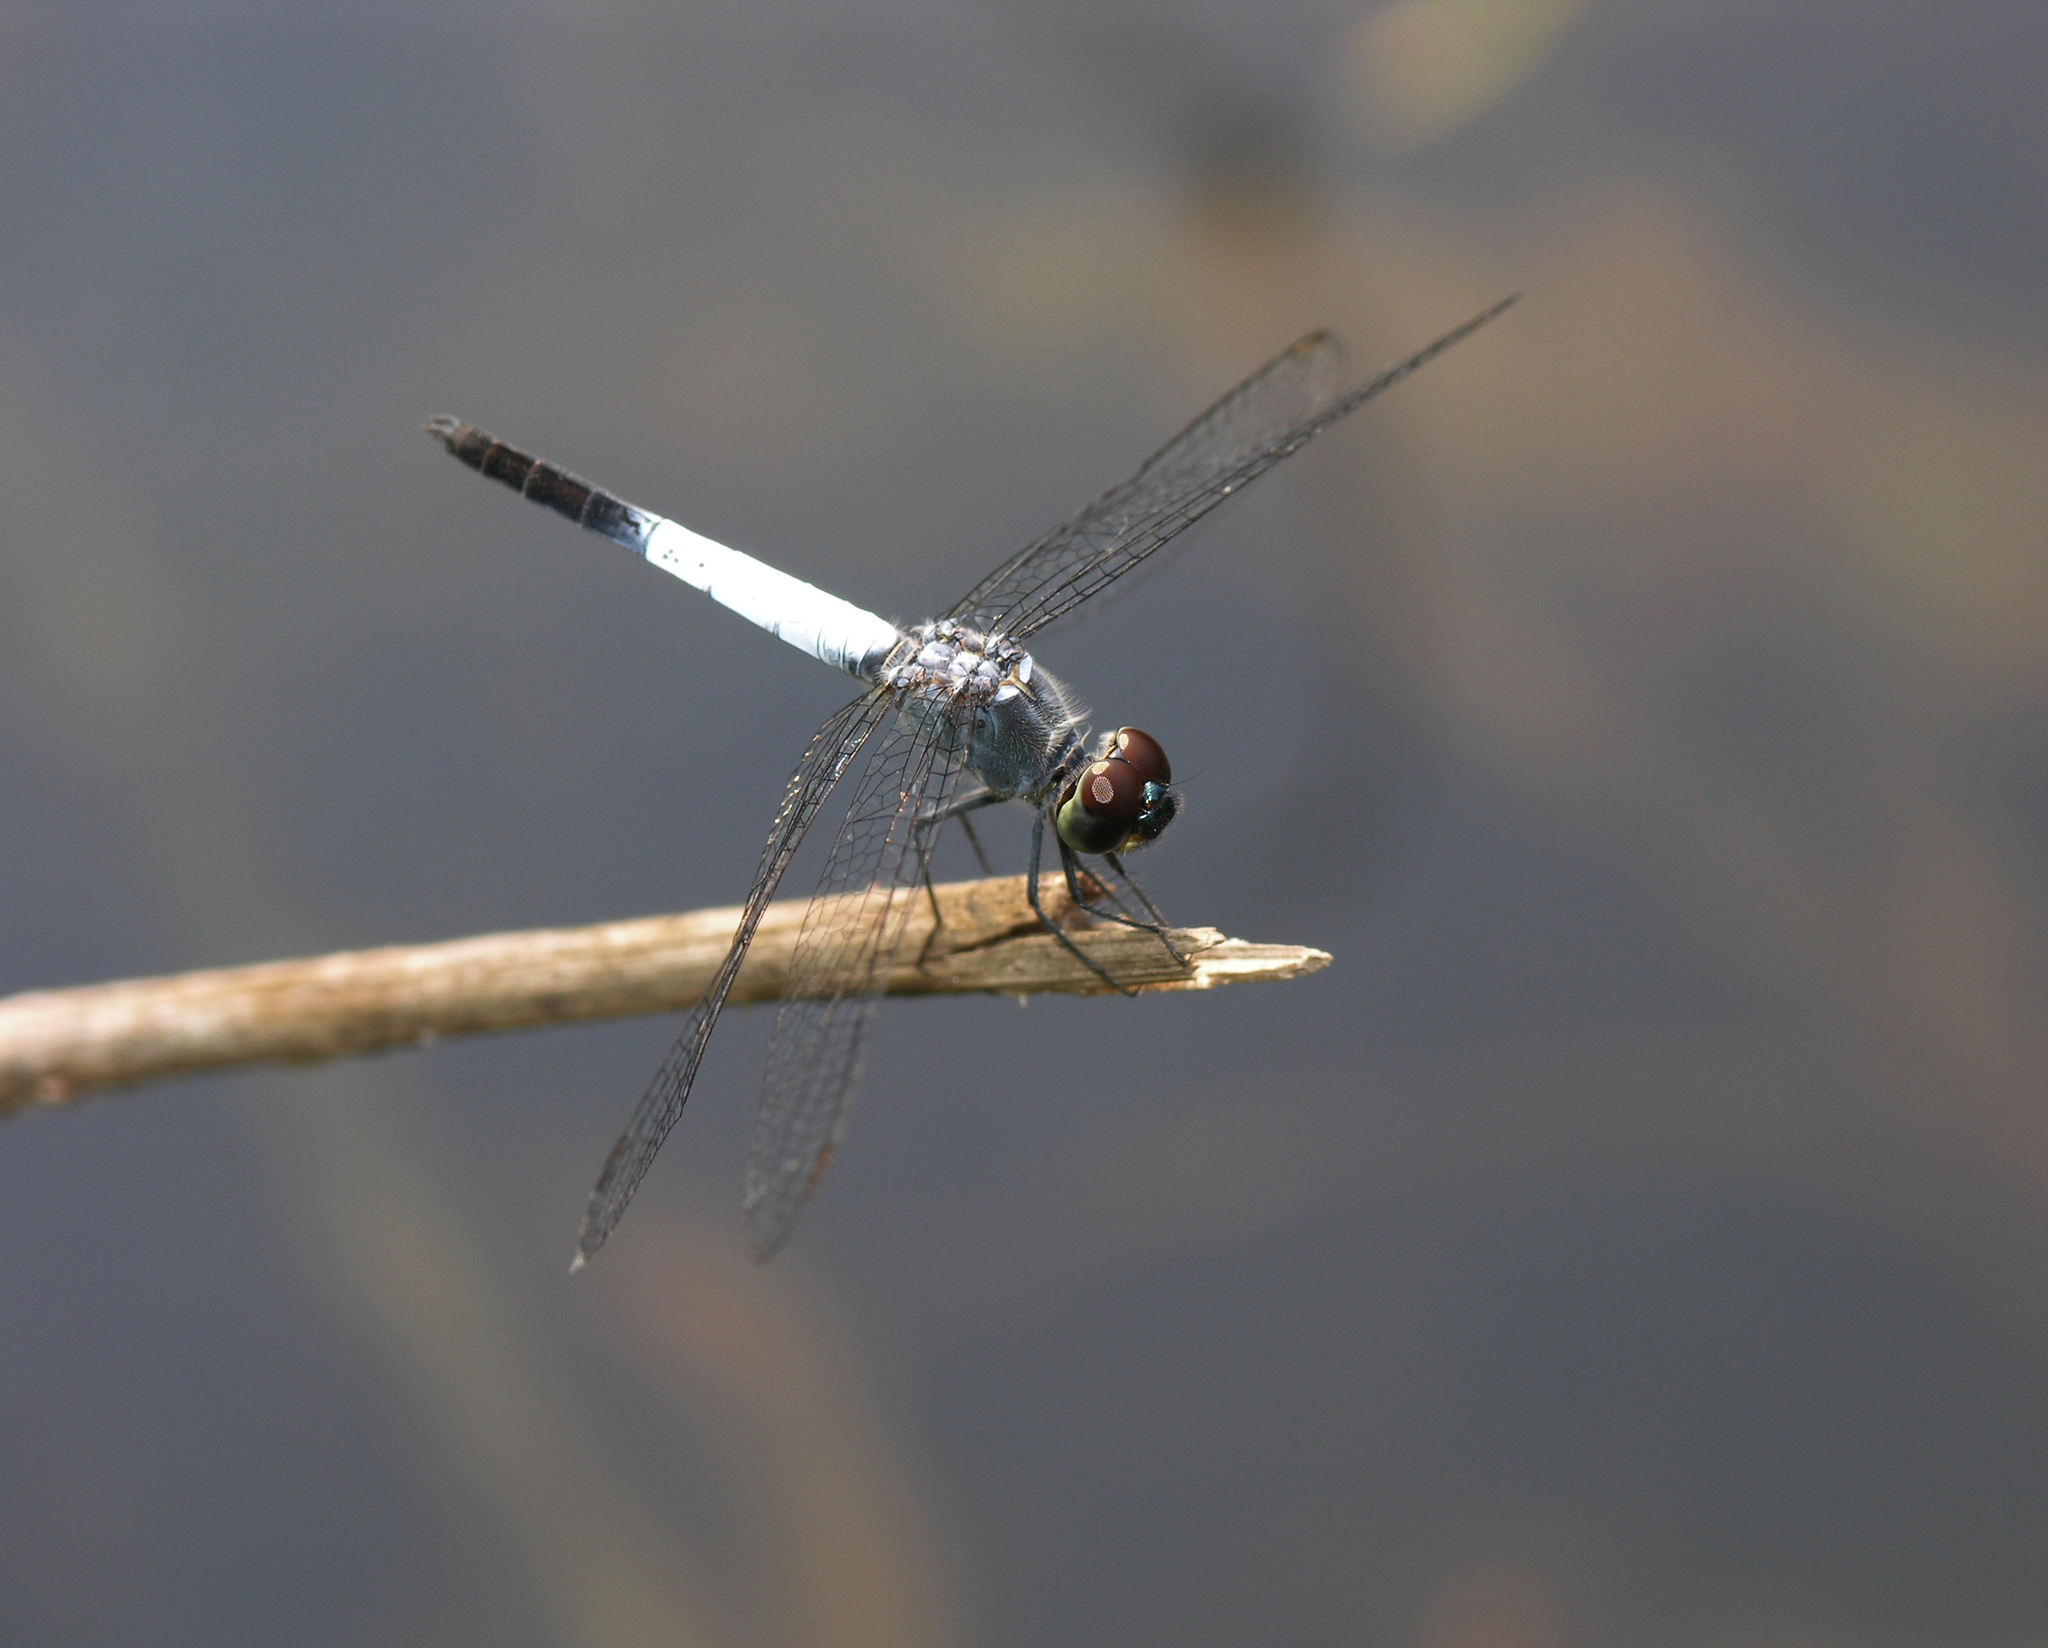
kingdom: Animalia
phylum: Arthropoda
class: Insecta
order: Odonata
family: Libellulidae
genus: Brachydiplax
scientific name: Brachydiplax farinosa
